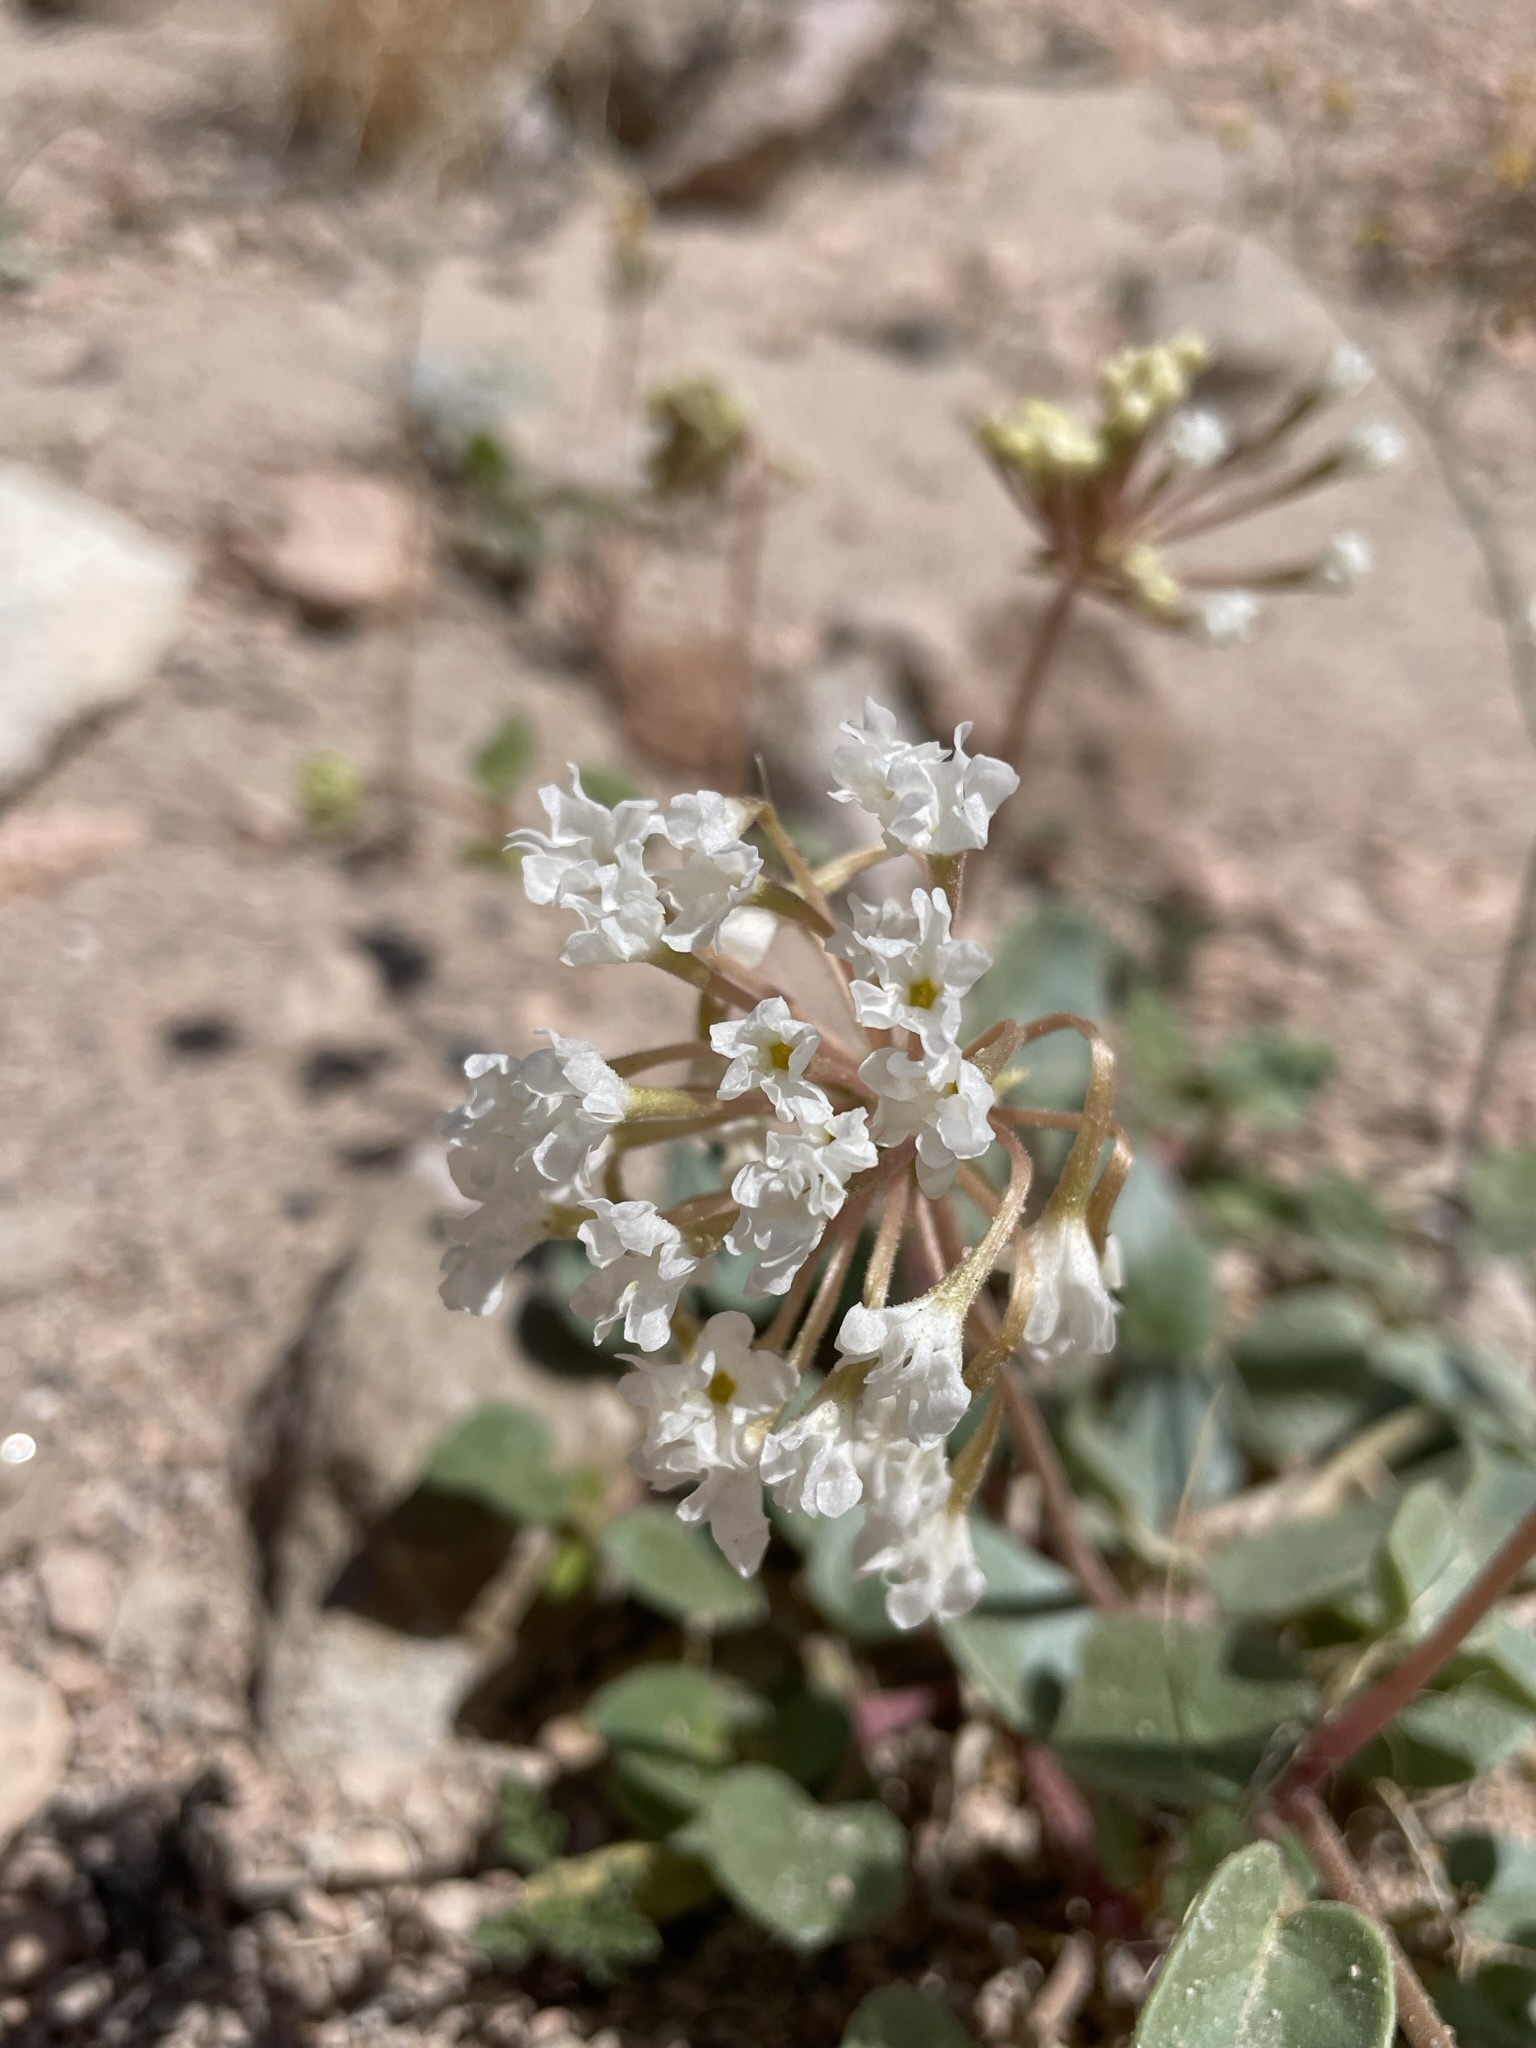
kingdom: Plantae
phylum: Tracheophyta
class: Magnoliopsida
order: Caryophyllales
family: Nyctaginaceae
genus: Abronia
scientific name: Abronia turbinata
